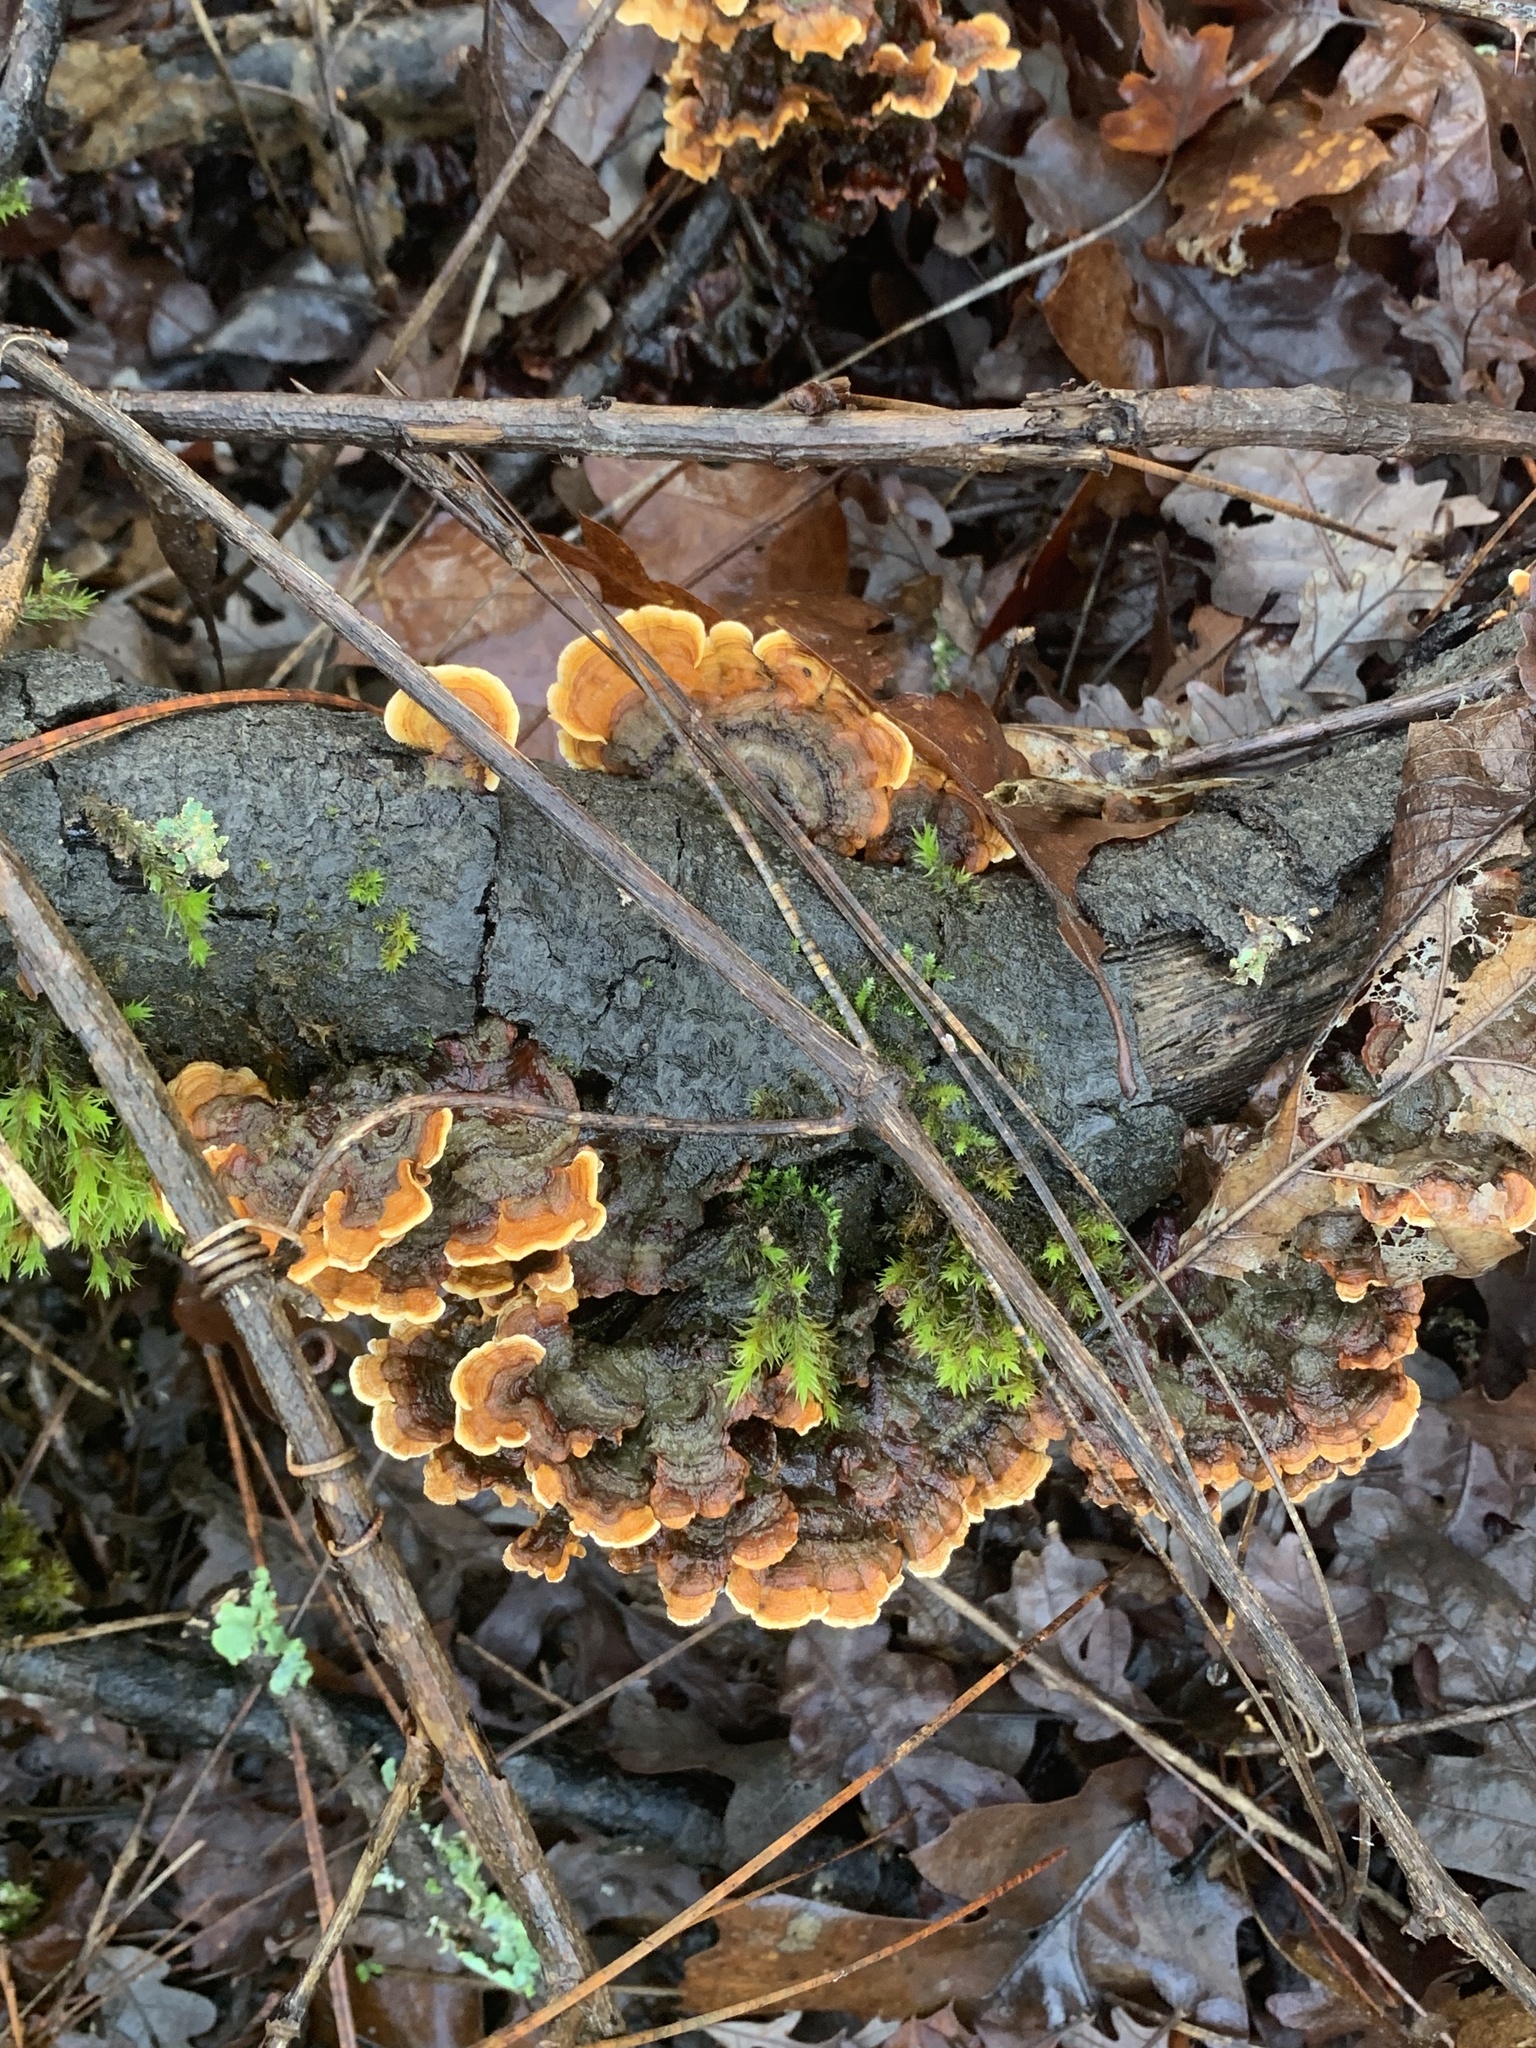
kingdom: Fungi
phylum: Basidiomycota
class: Agaricomycetes
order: Russulales
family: Stereaceae
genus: Stereum
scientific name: Stereum hirsutum
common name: Hairy curtain crust
